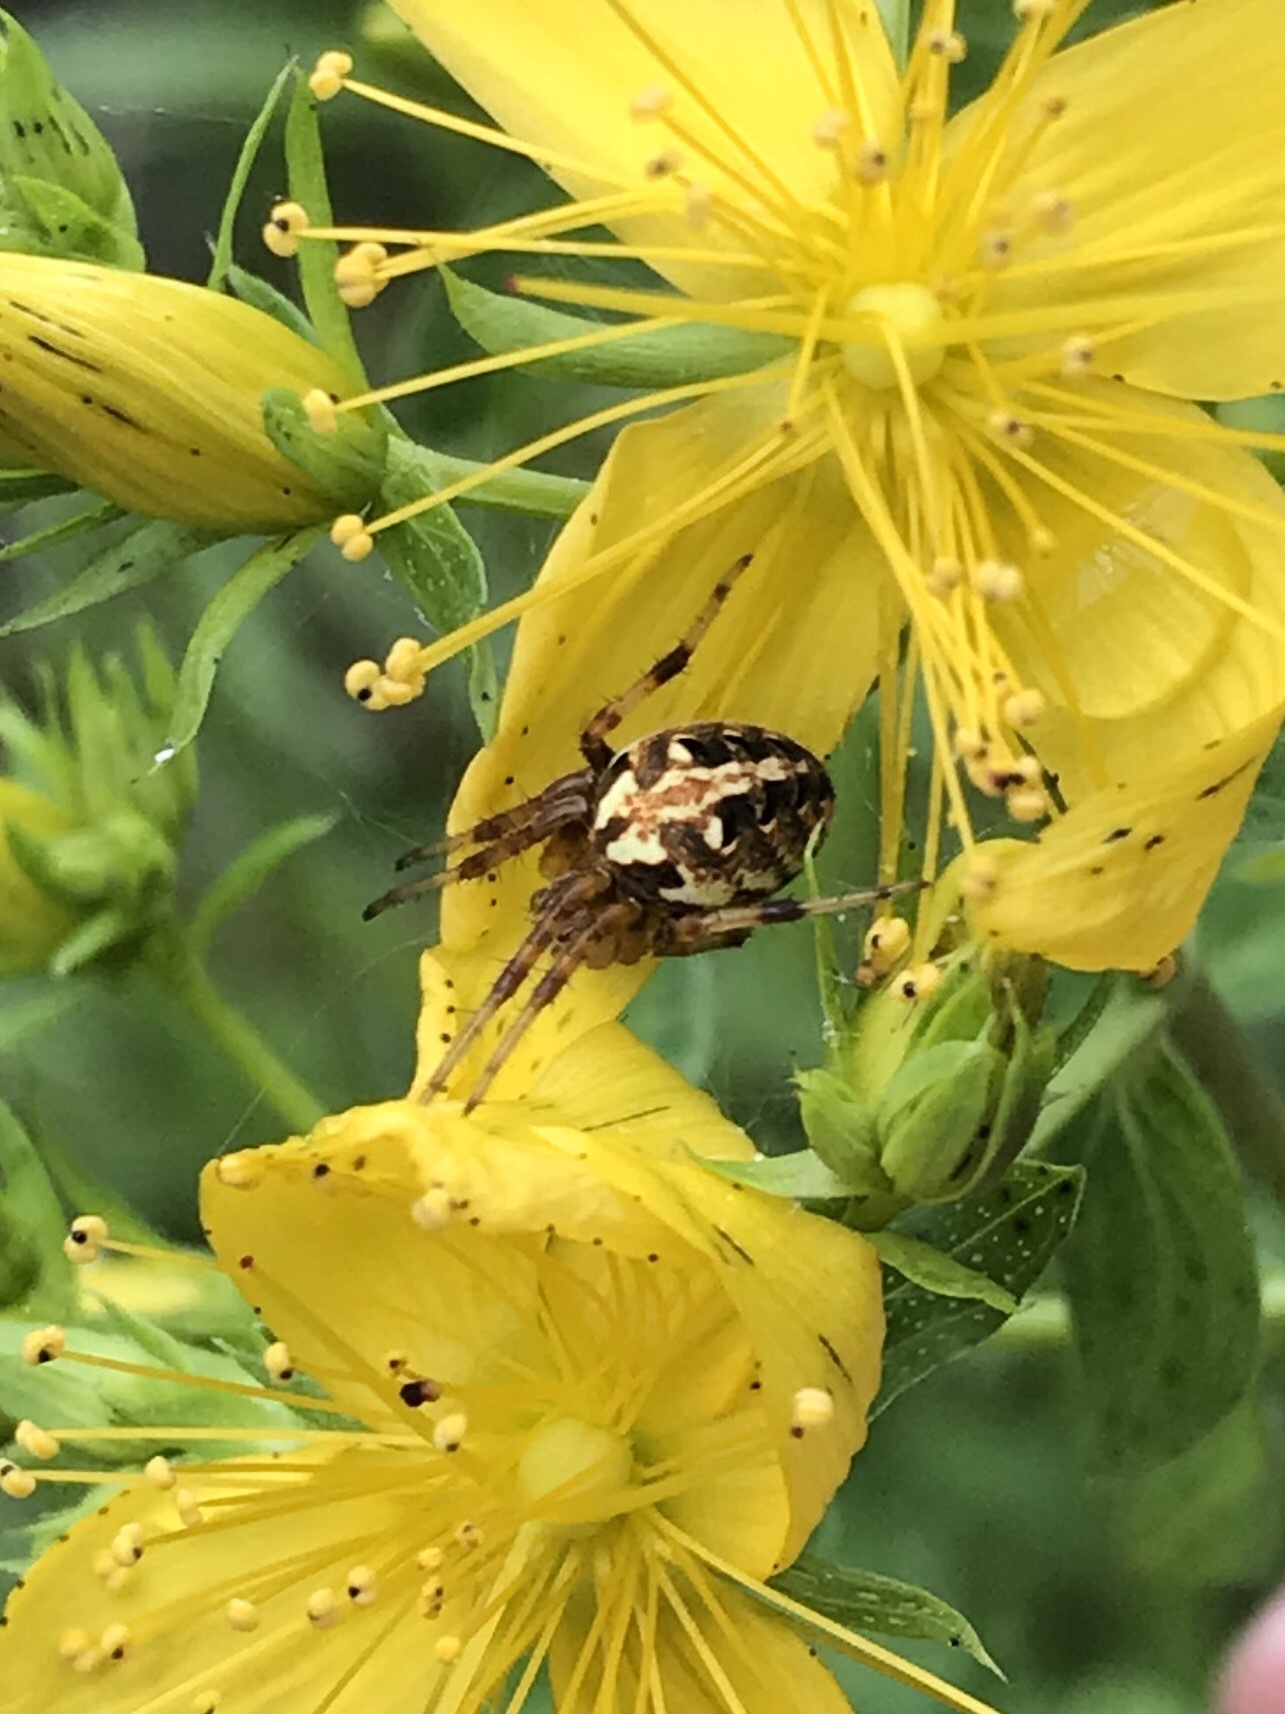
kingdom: Animalia
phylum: Arthropoda
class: Arachnida
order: Araneae
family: Araneidae
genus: Neoscona
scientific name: Neoscona arabesca
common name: Orb weavers
